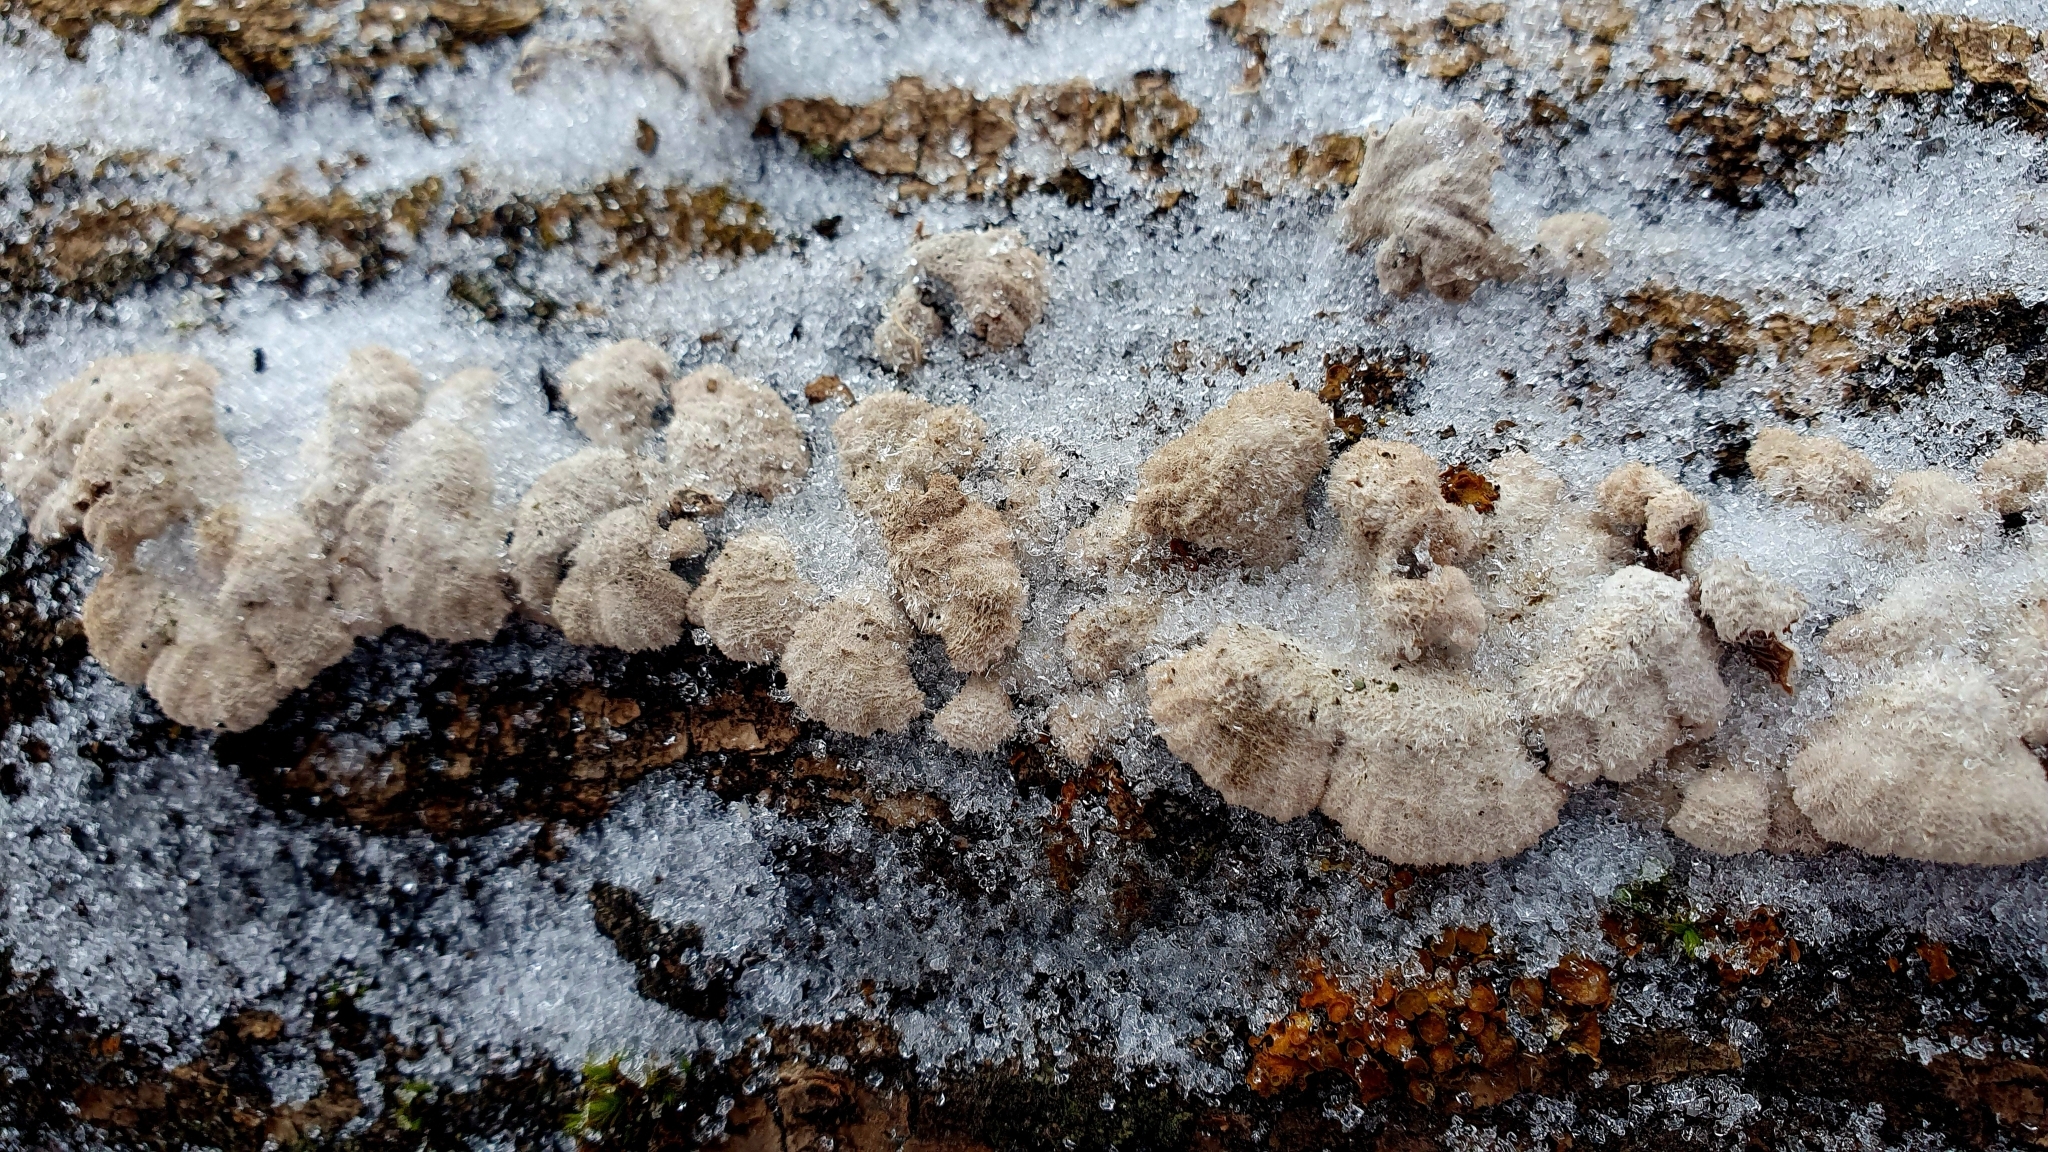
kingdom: Fungi
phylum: Basidiomycota
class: Agaricomycetes
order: Agaricales
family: Schizophyllaceae
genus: Schizophyllum
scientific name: Schizophyllum commune
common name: Common porecrust
